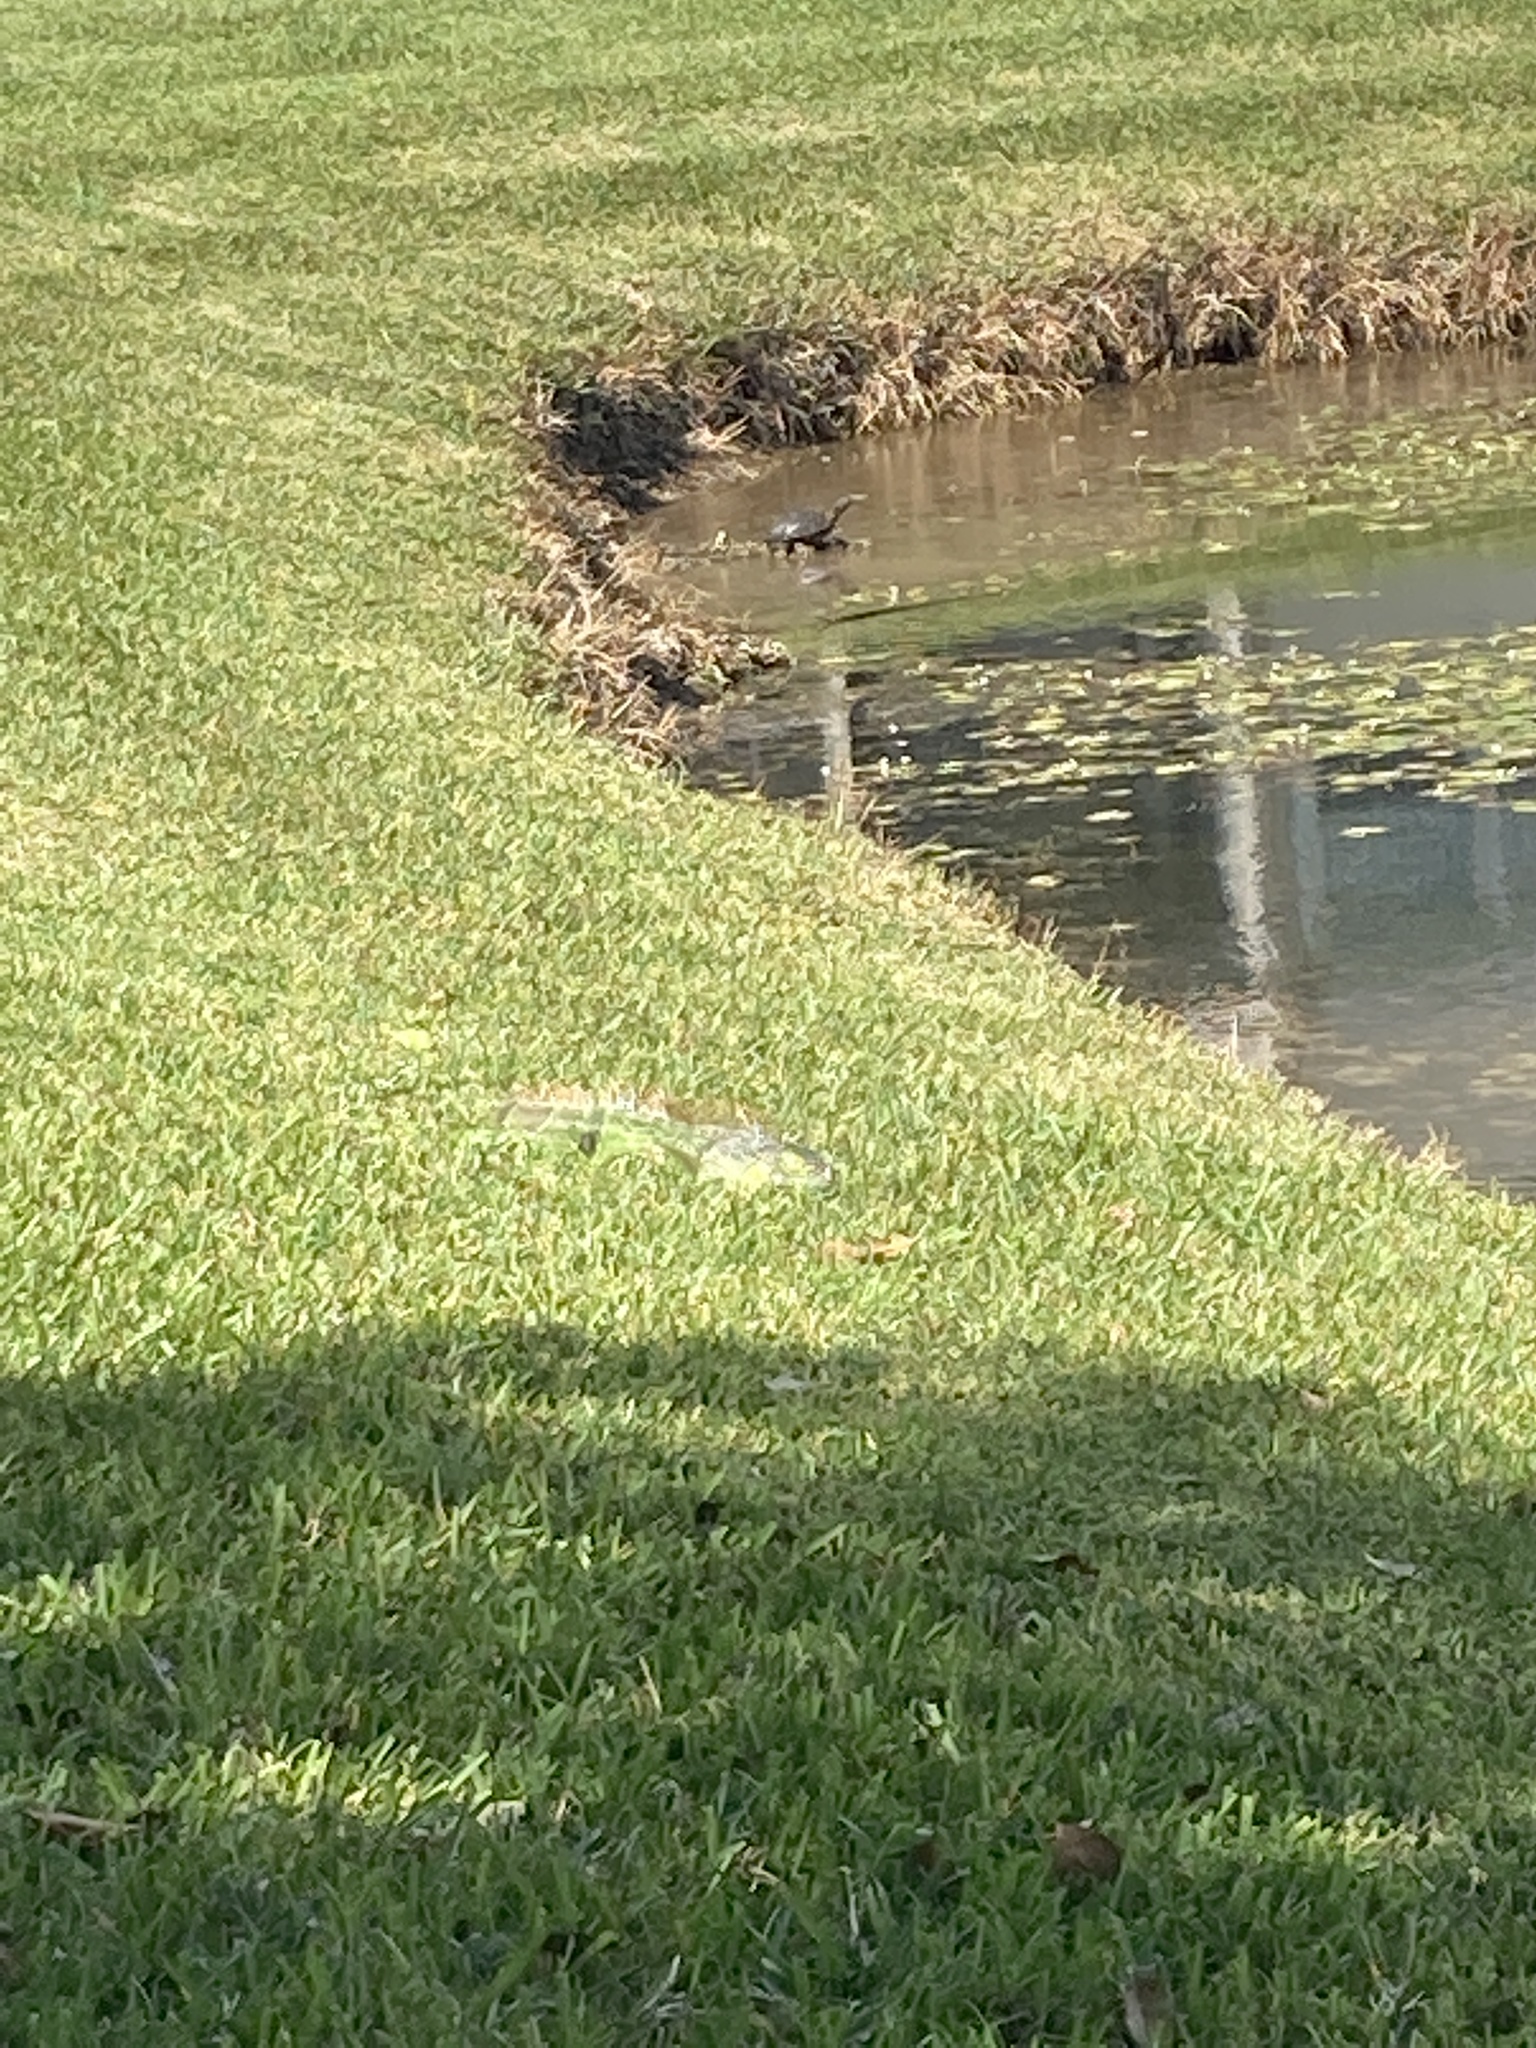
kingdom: Animalia
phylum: Chordata
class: Squamata
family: Iguanidae
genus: Iguana
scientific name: Iguana iguana
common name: Green iguana
